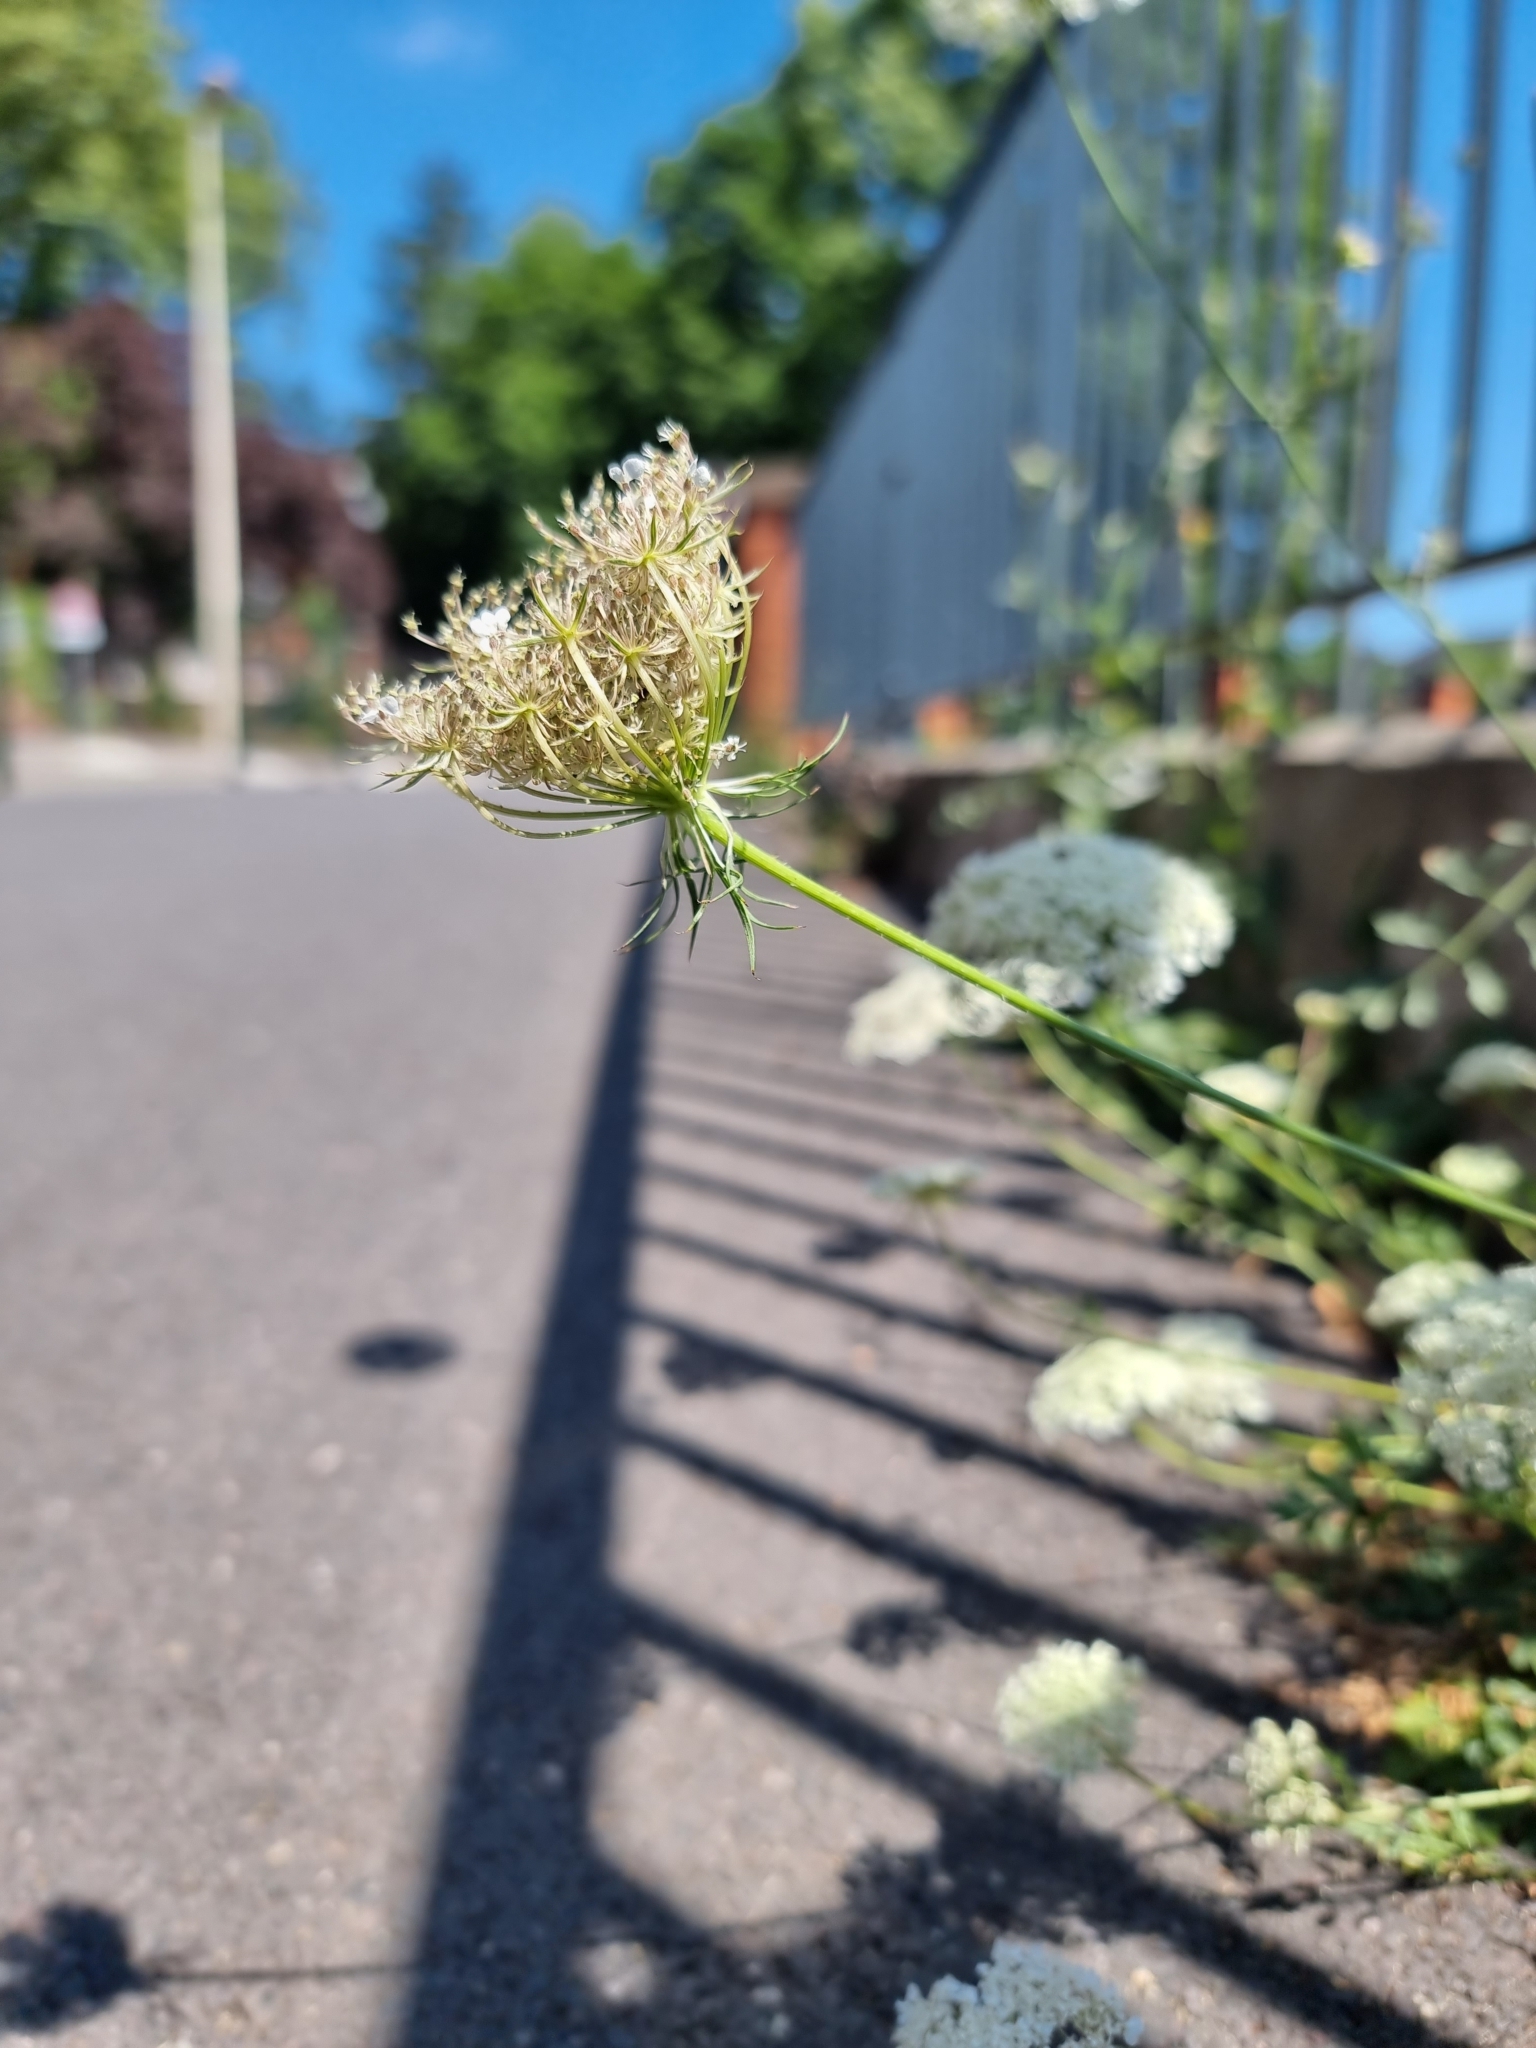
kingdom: Plantae
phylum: Tracheophyta
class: Magnoliopsida
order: Apiales
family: Apiaceae
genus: Daucus
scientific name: Daucus carota
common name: Wild carrot
